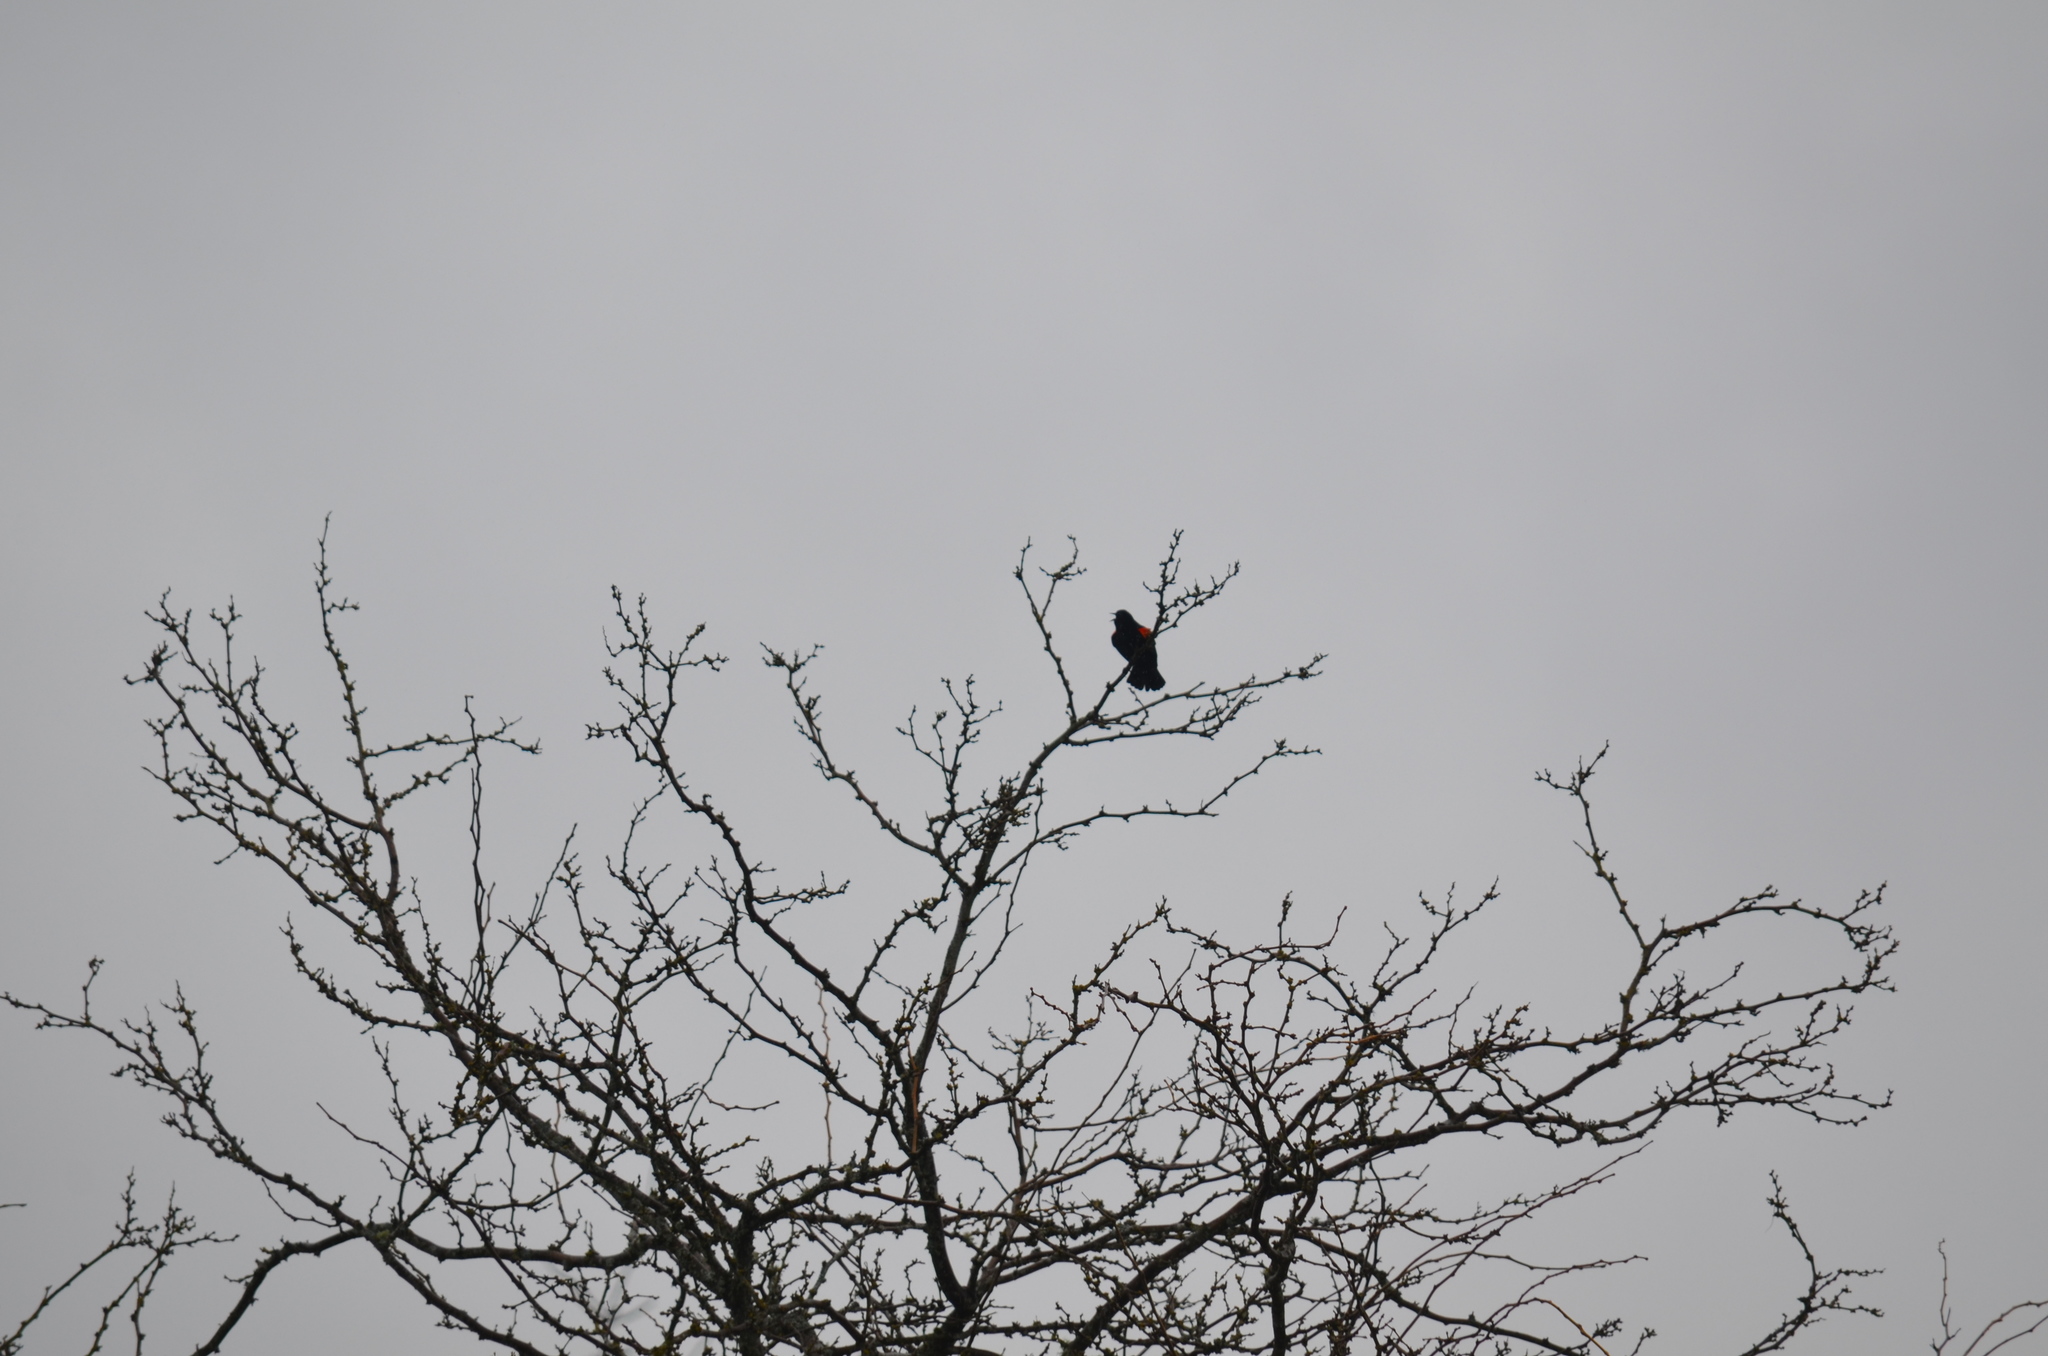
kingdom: Animalia
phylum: Chordata
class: Aves
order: Passeriformes
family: Icteridae
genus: Agelaius
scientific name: Agelaius phoeniceus
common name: Red-winged blackbird
